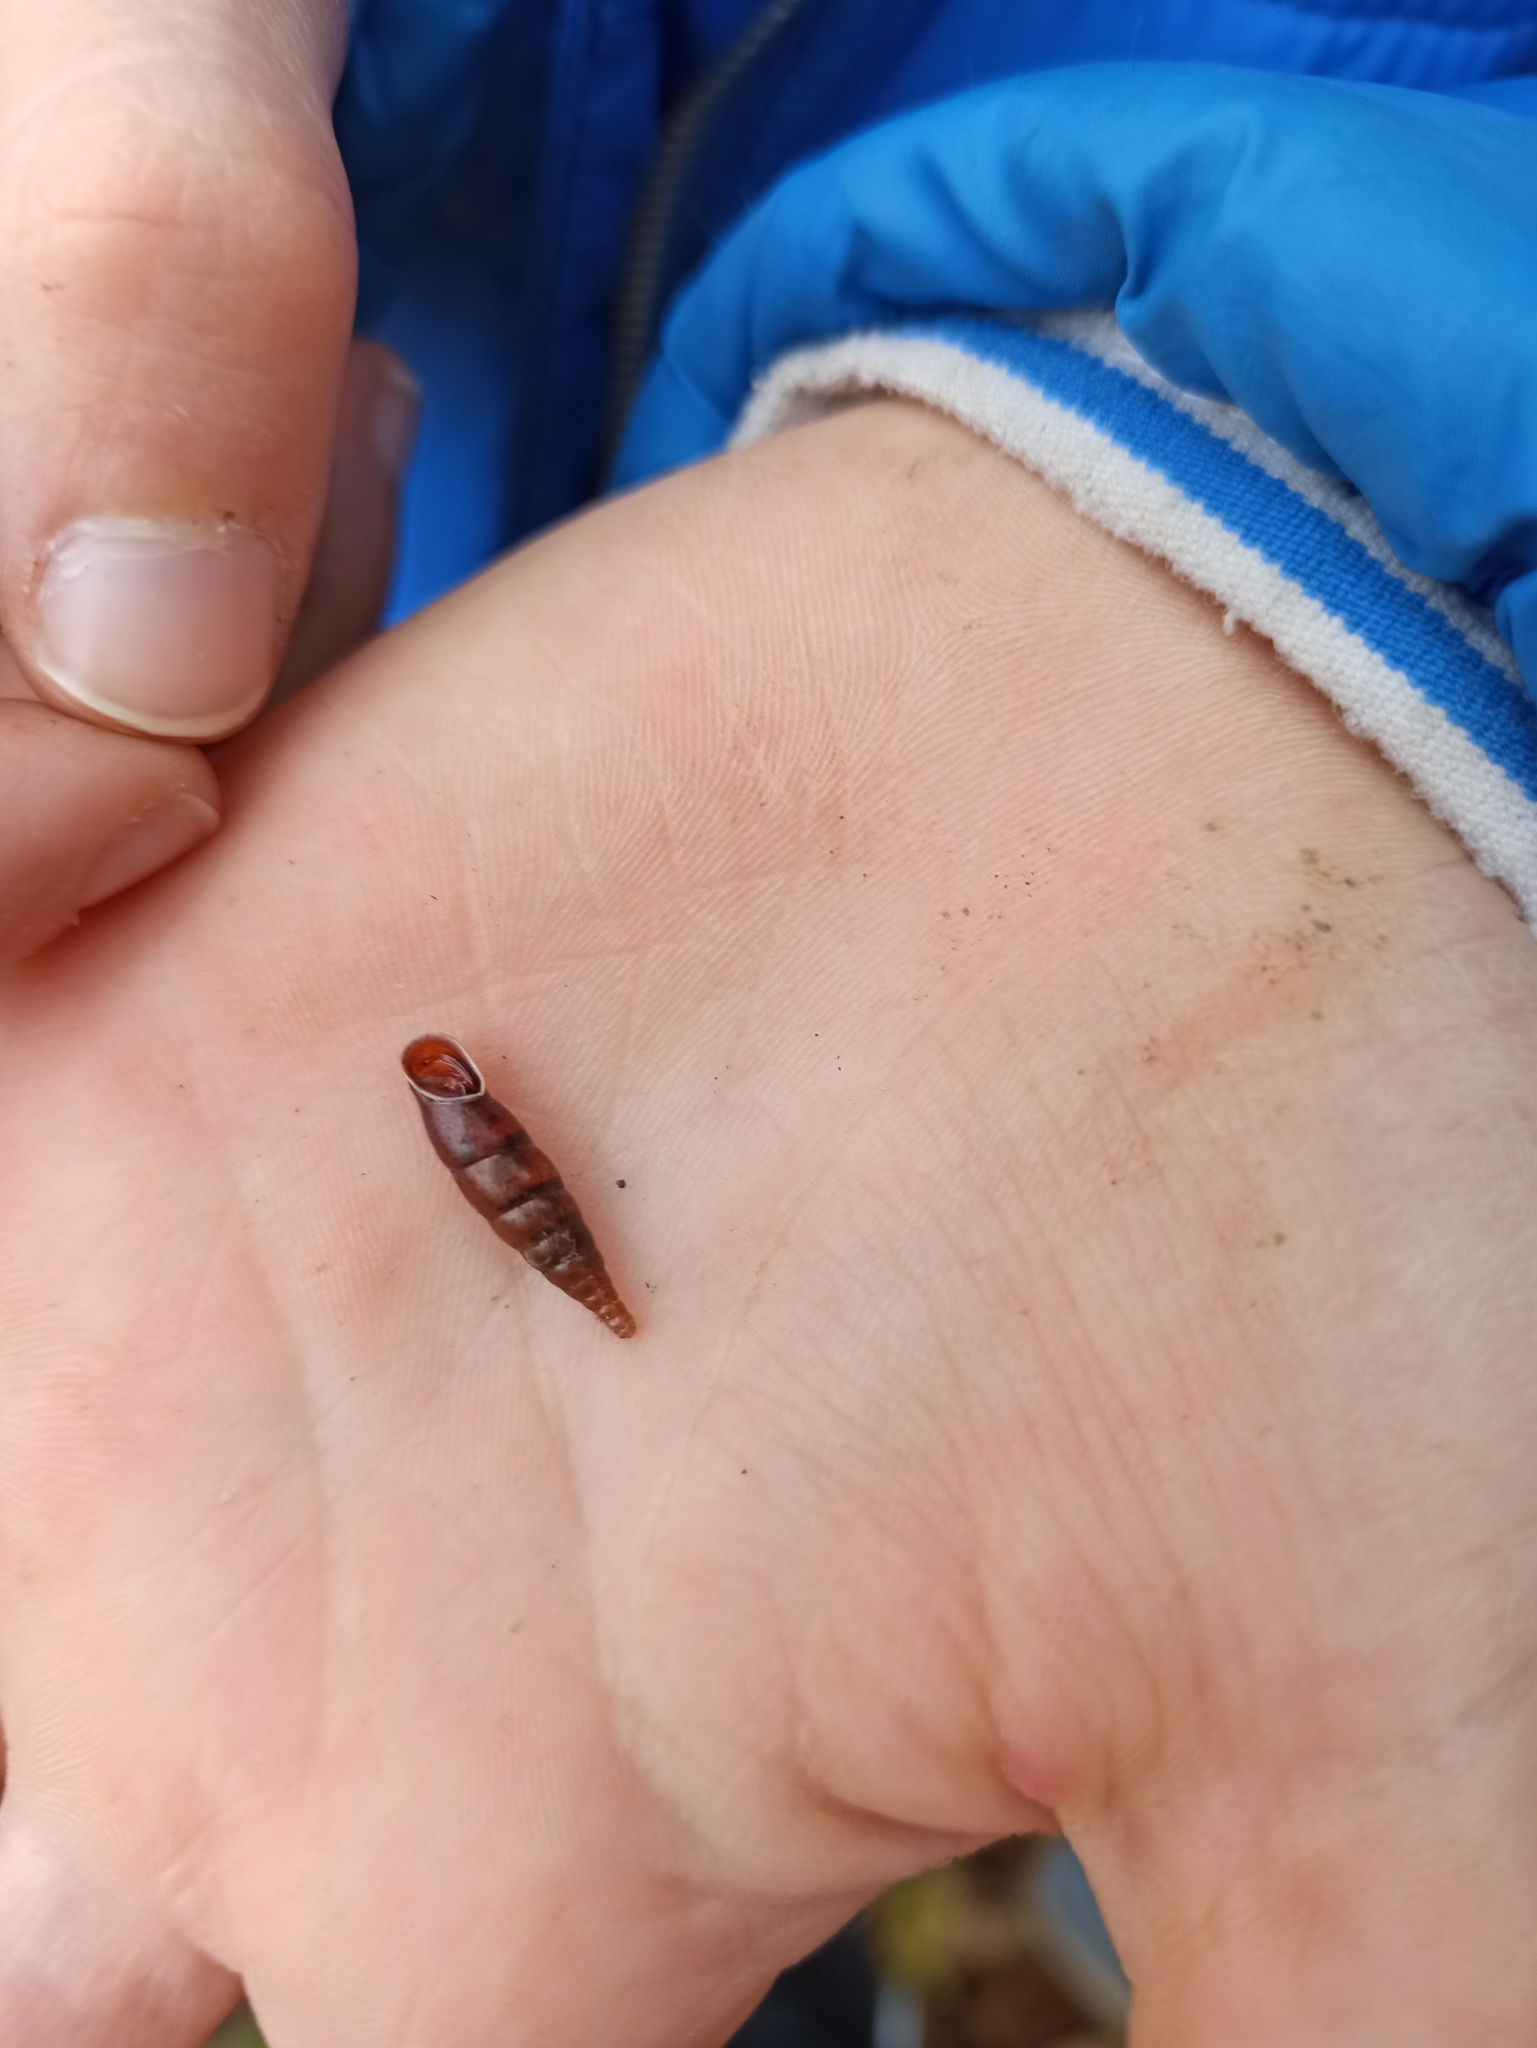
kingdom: Animalia
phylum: Mollusca
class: Gastropoda
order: Stylommatophora
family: Clausiliidae
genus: Cochlodina
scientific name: Cochlodina laminata
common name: Plaited door snail
